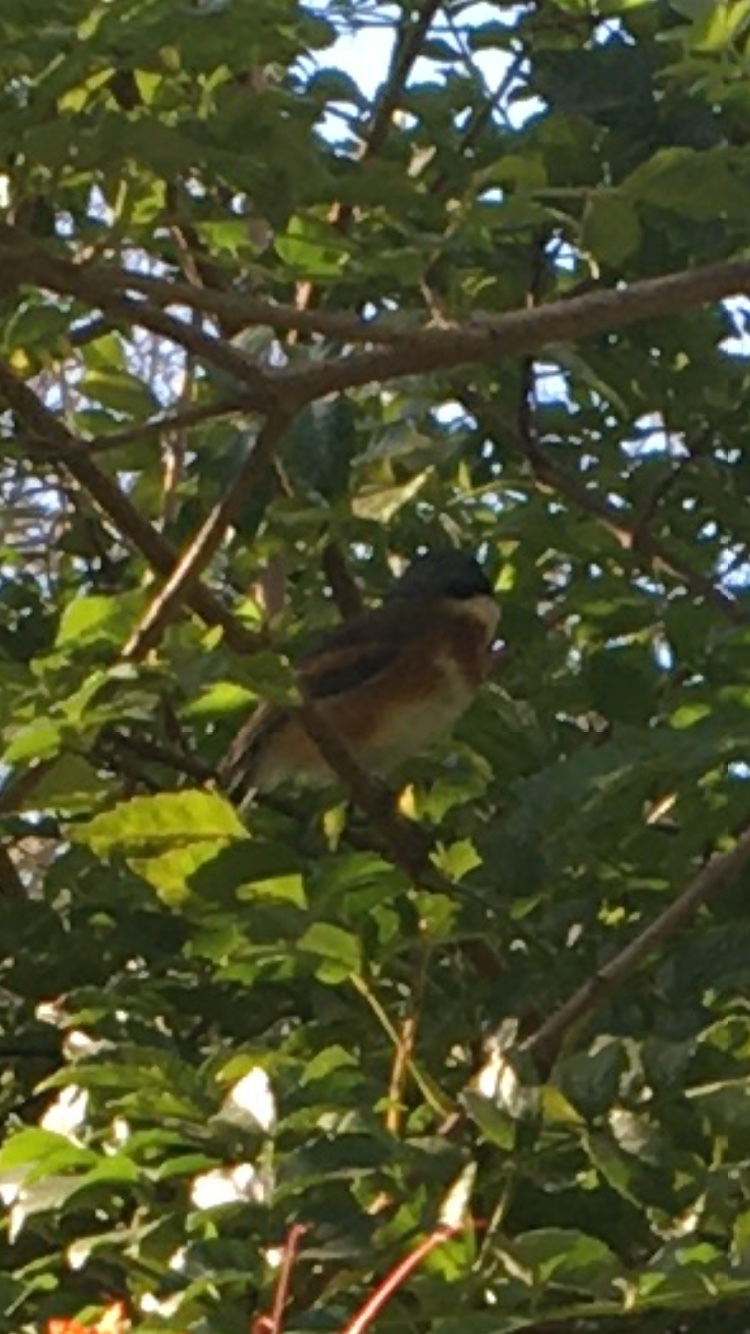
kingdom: Animalia
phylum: Chordata
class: Aves
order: Passeriformes
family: Platysteiridae
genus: Batis
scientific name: Batis capensis
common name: Cape batis
